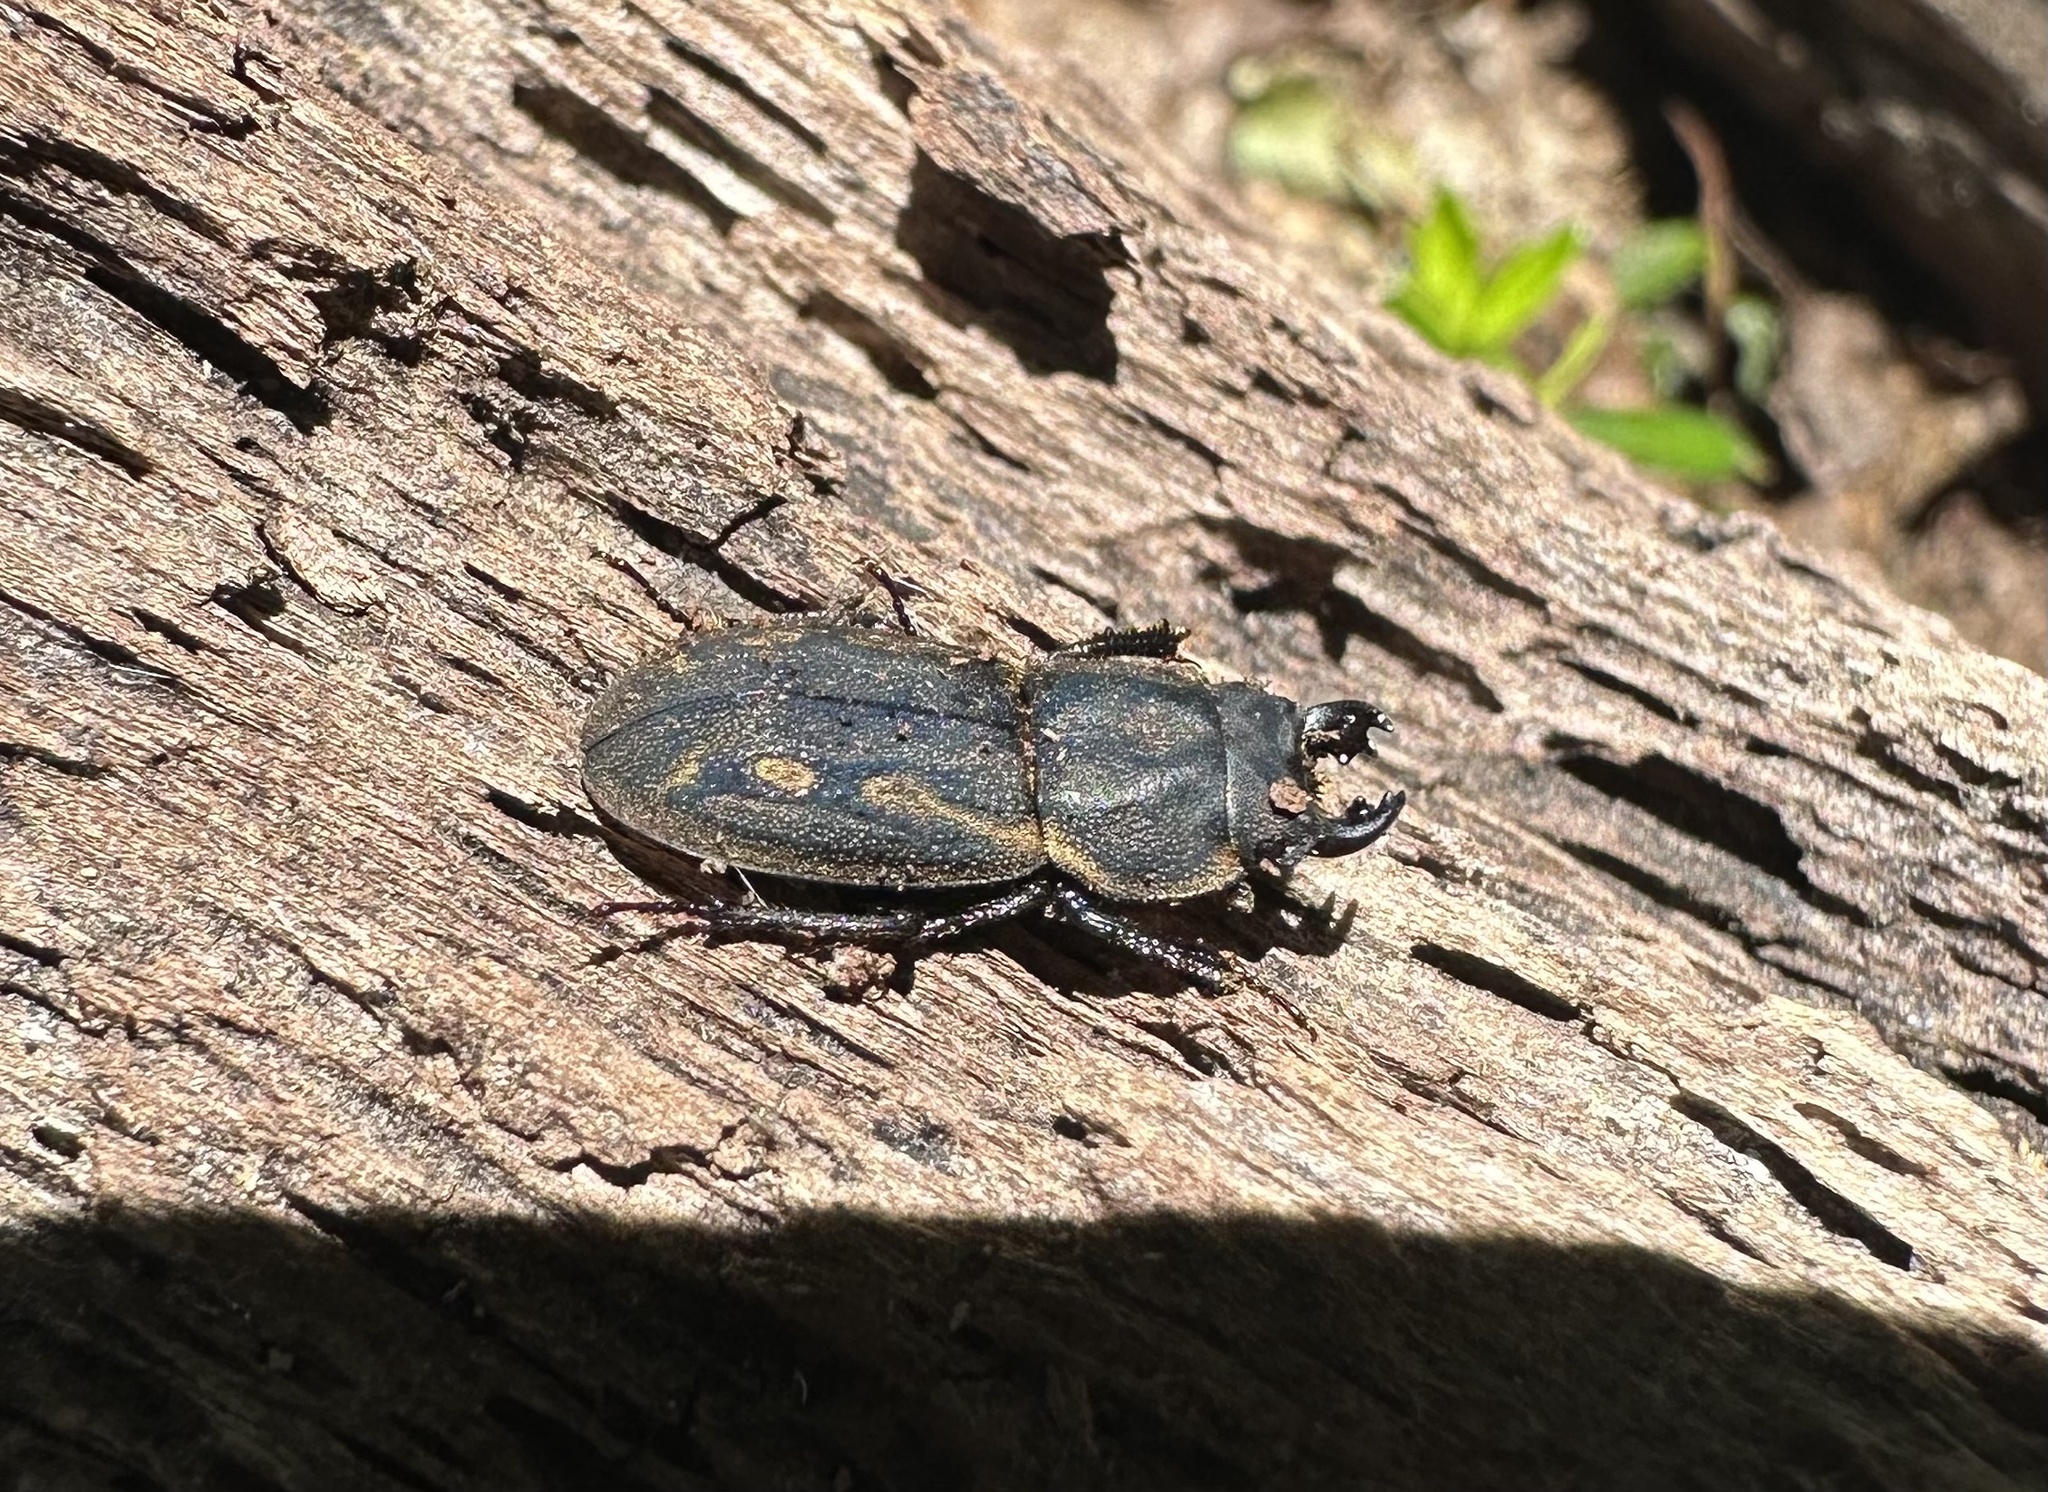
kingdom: Animalia
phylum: Arthropoda
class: Insecta
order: Coleoptera
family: Lucanidae
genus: Erichius
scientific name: Erichius calverti
